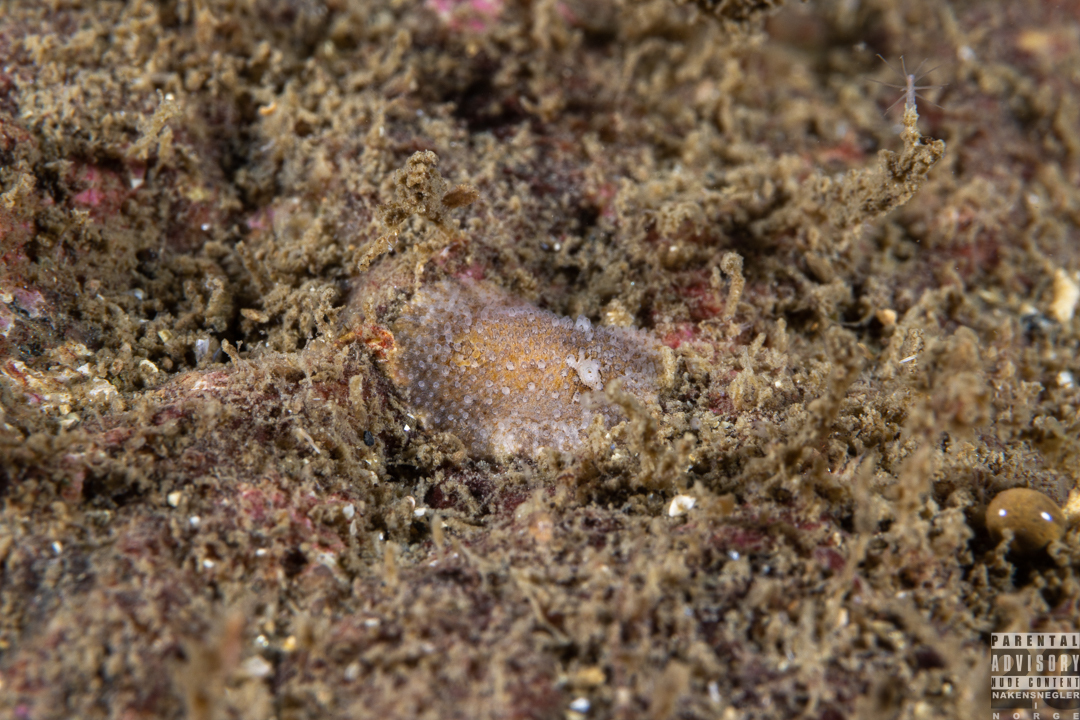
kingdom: Animalia
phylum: Mollusca
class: Gastropoda
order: Nudibranchia
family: Onchidorididae
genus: Atalodoris
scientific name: Atalodoris sparsa
